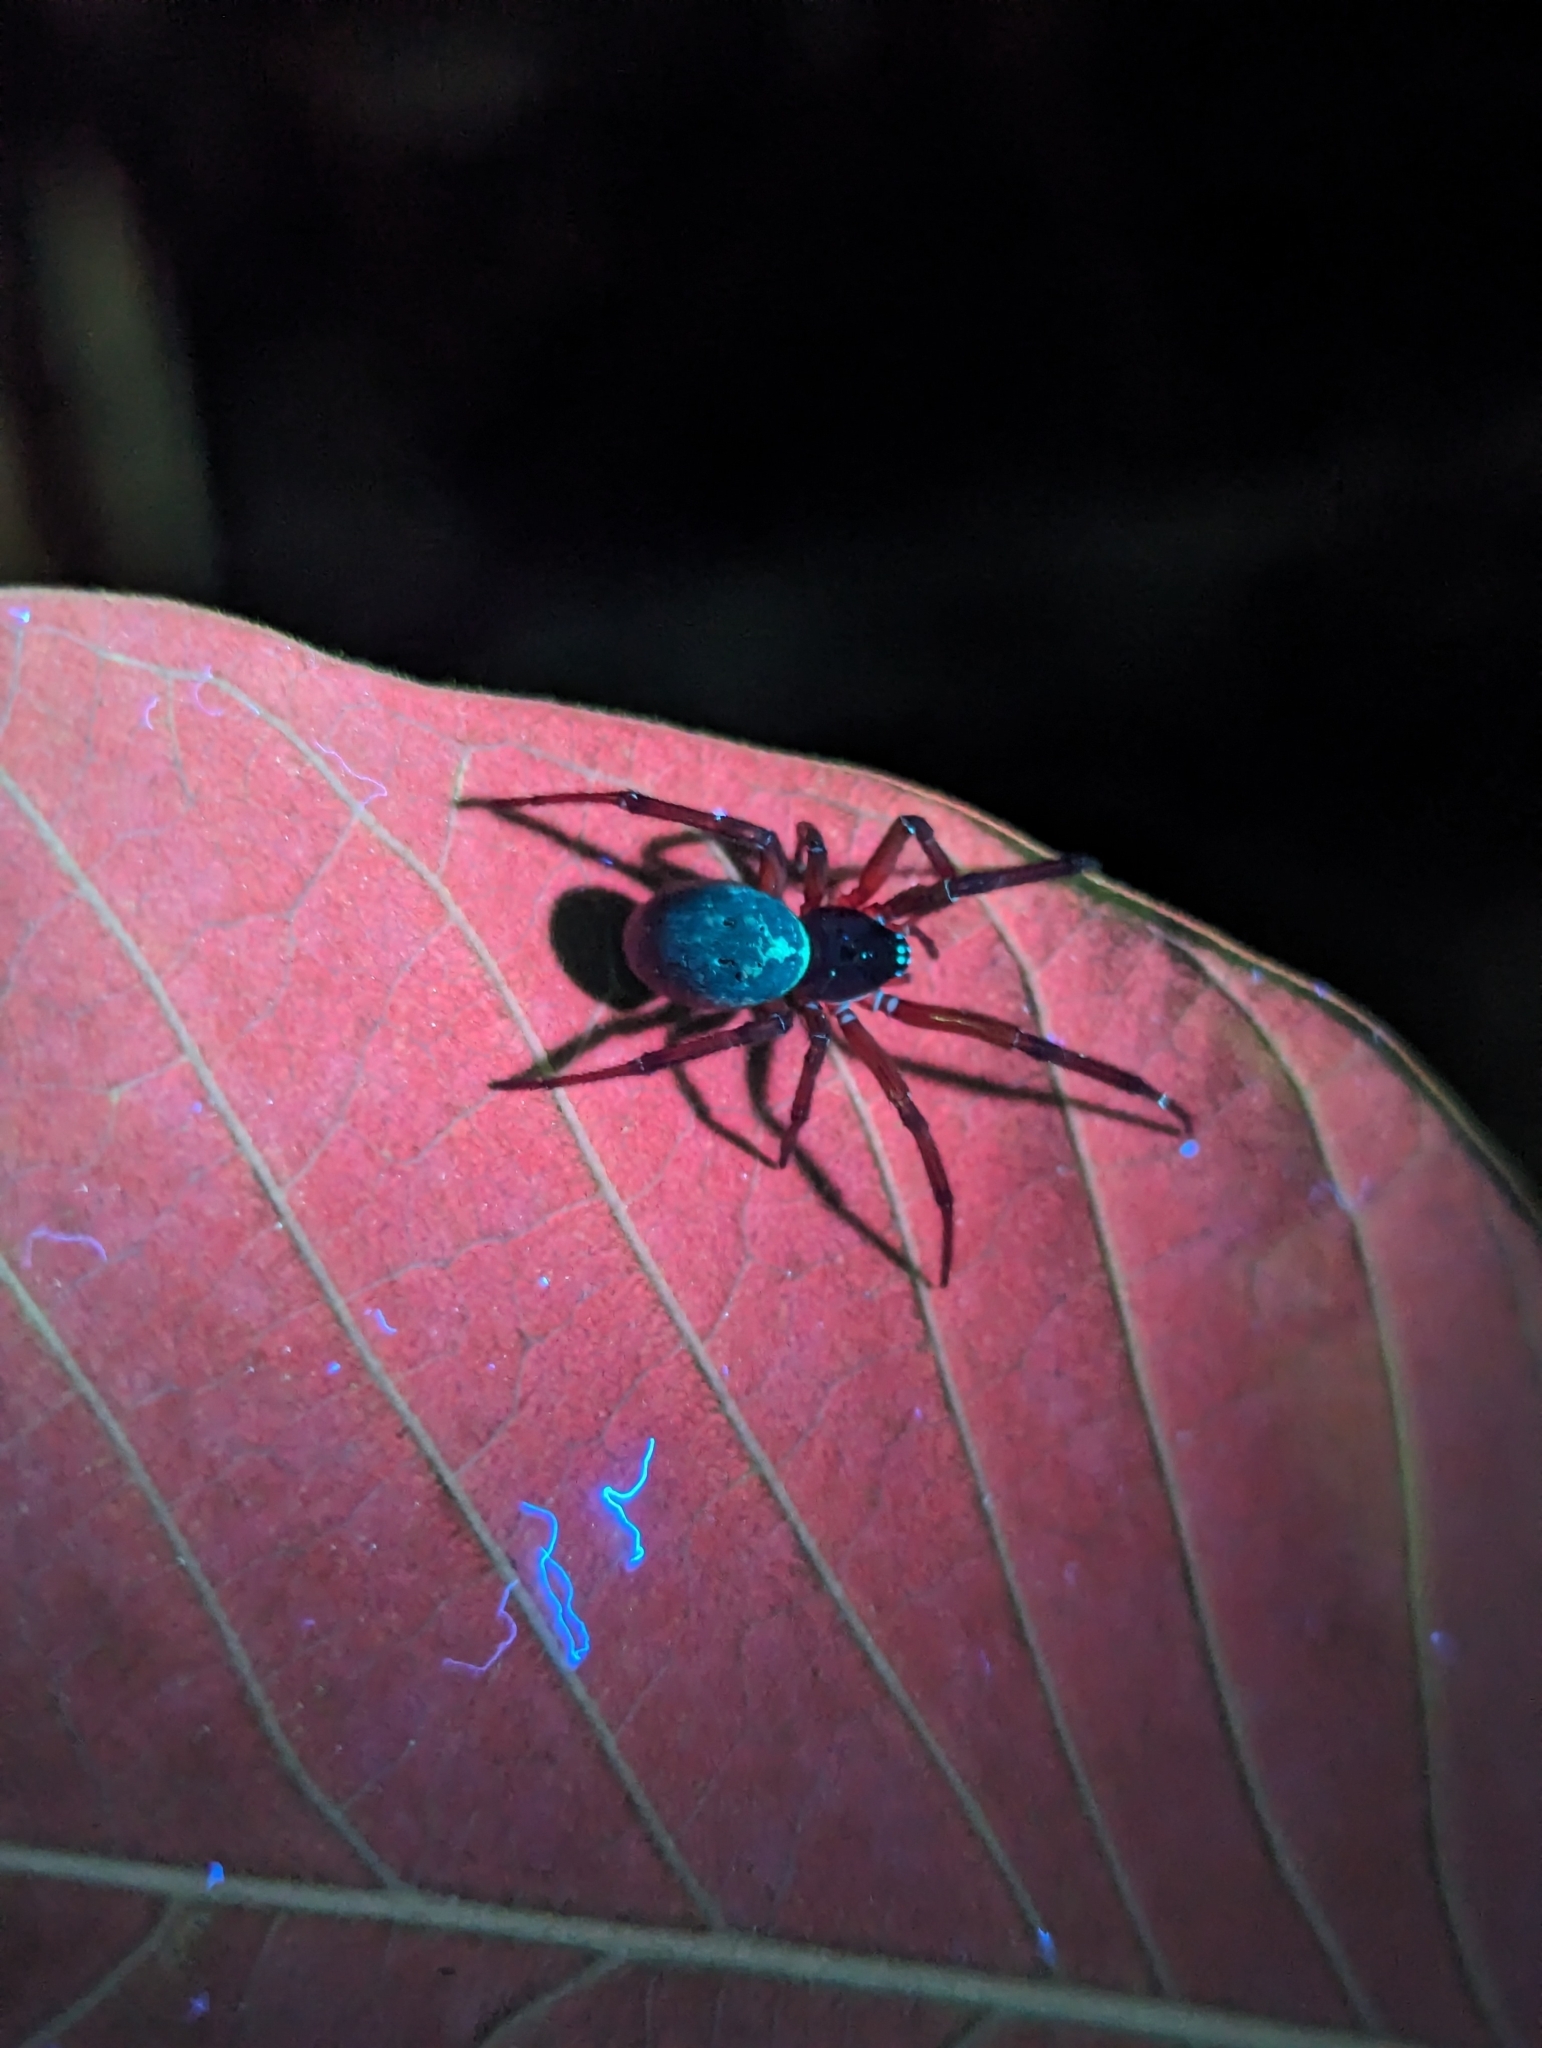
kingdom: Animalia
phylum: Arthropoda
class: Arachnida
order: Araneae
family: Theridiidae
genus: Steatoda
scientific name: Steatoda nobilis
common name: Cobweb weaver
